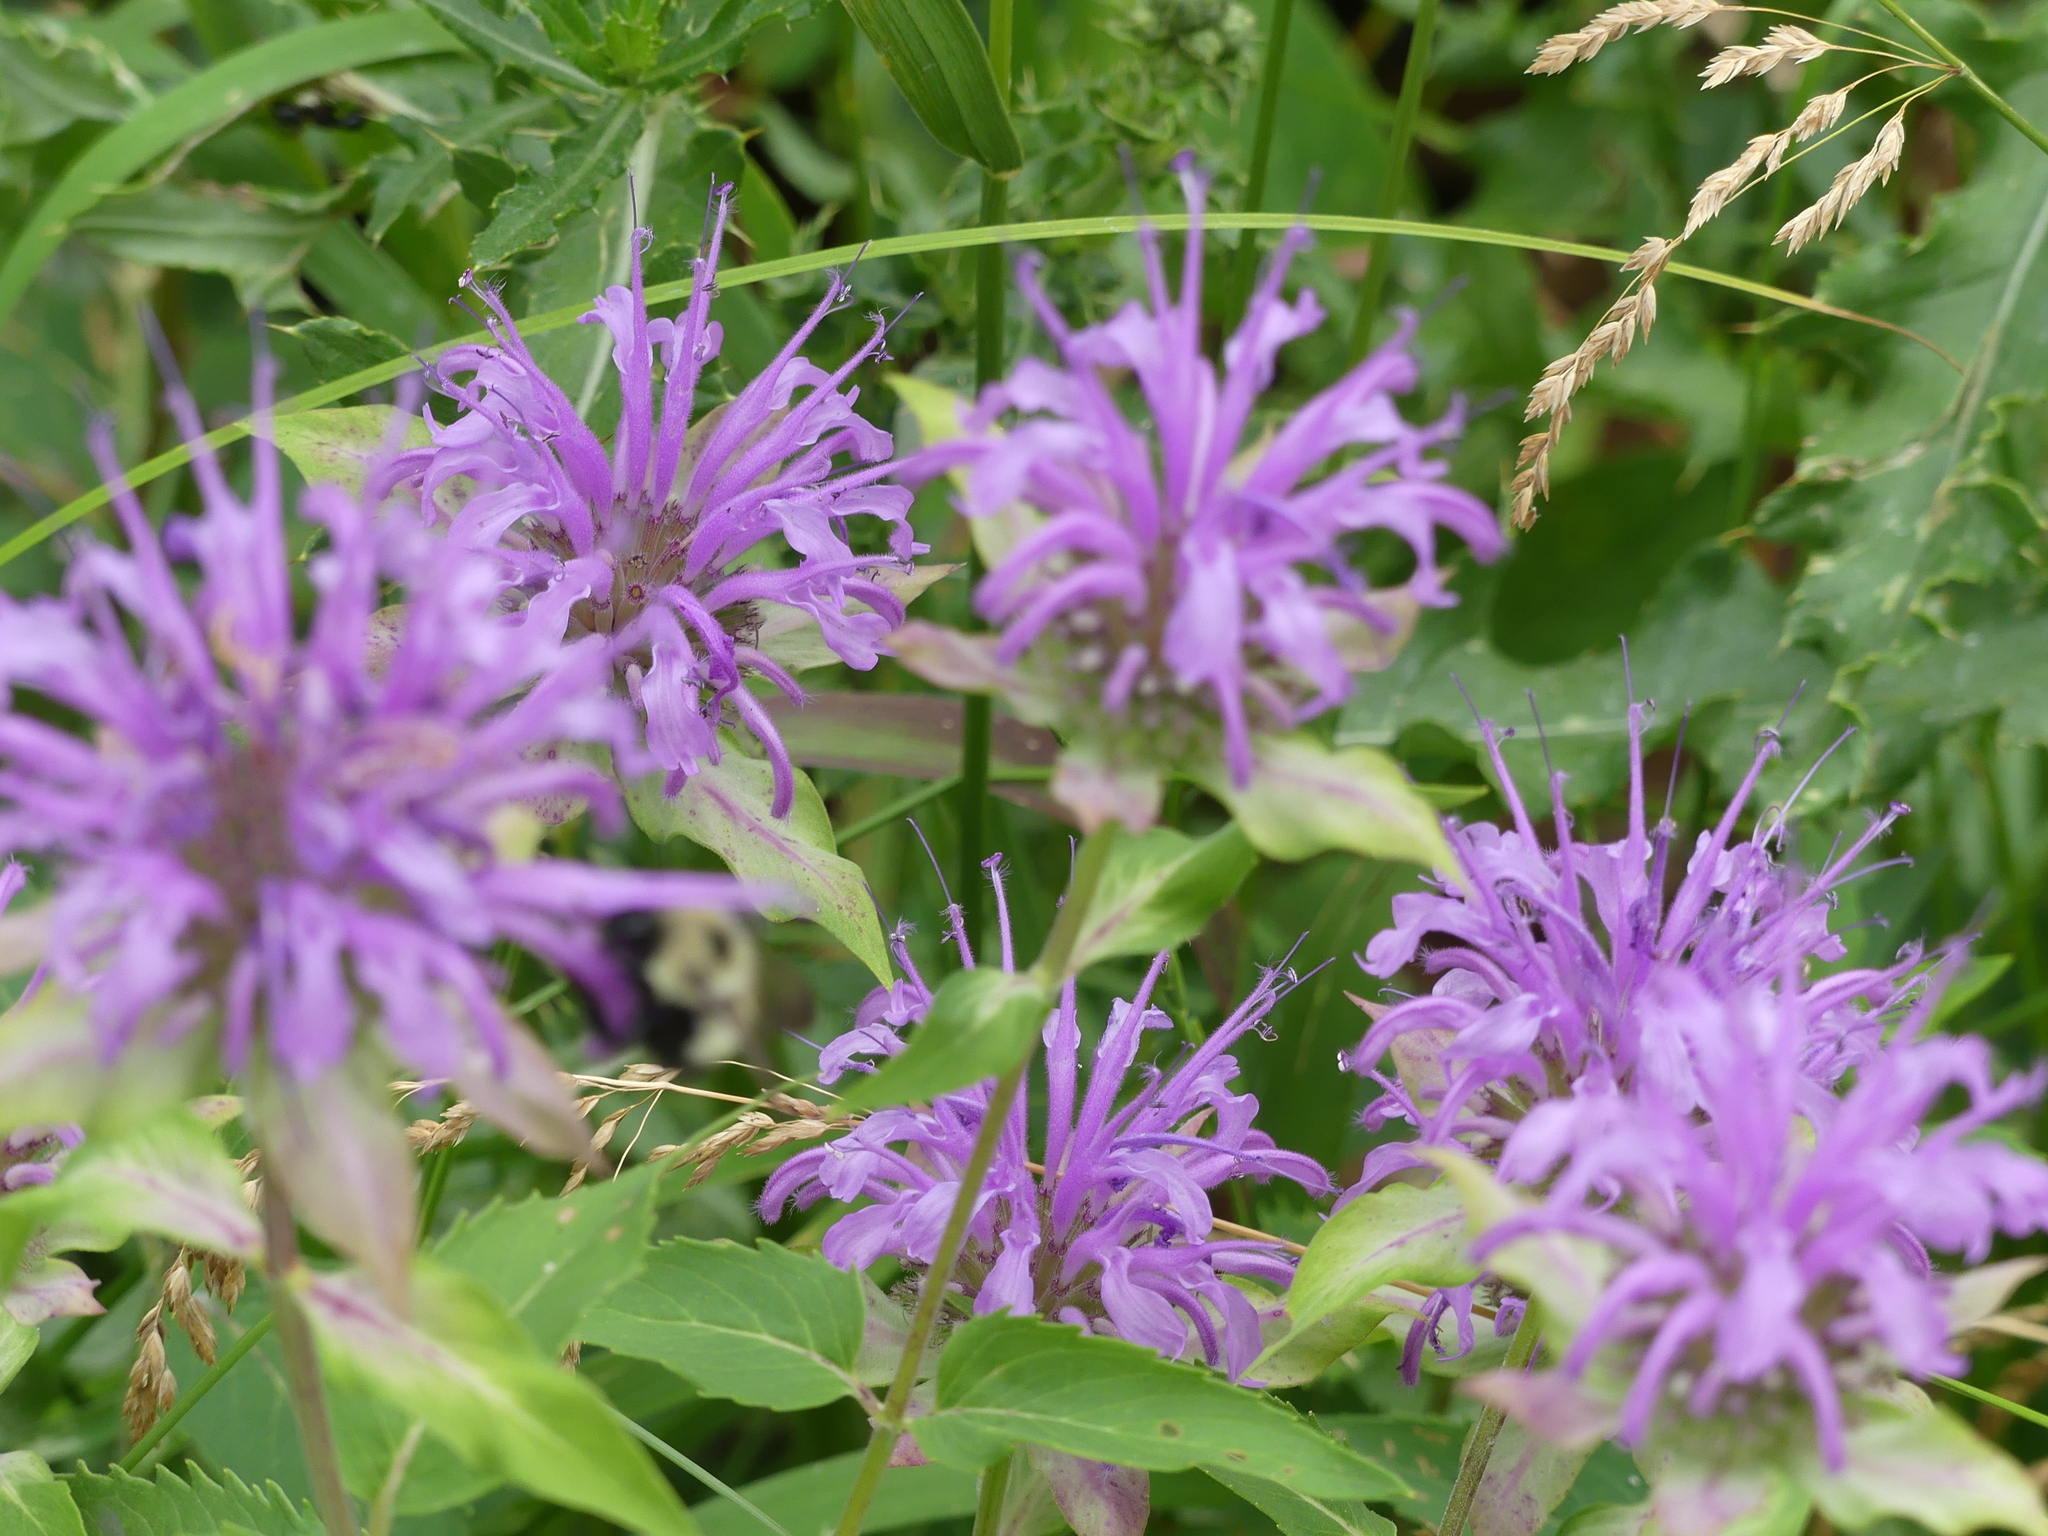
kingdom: Plantae
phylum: Tracheophyta
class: Magnoliopsida
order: Lamiales
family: Lamiaceae
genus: Monarda
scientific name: Monarda fistulosa
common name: Purple beebalm
